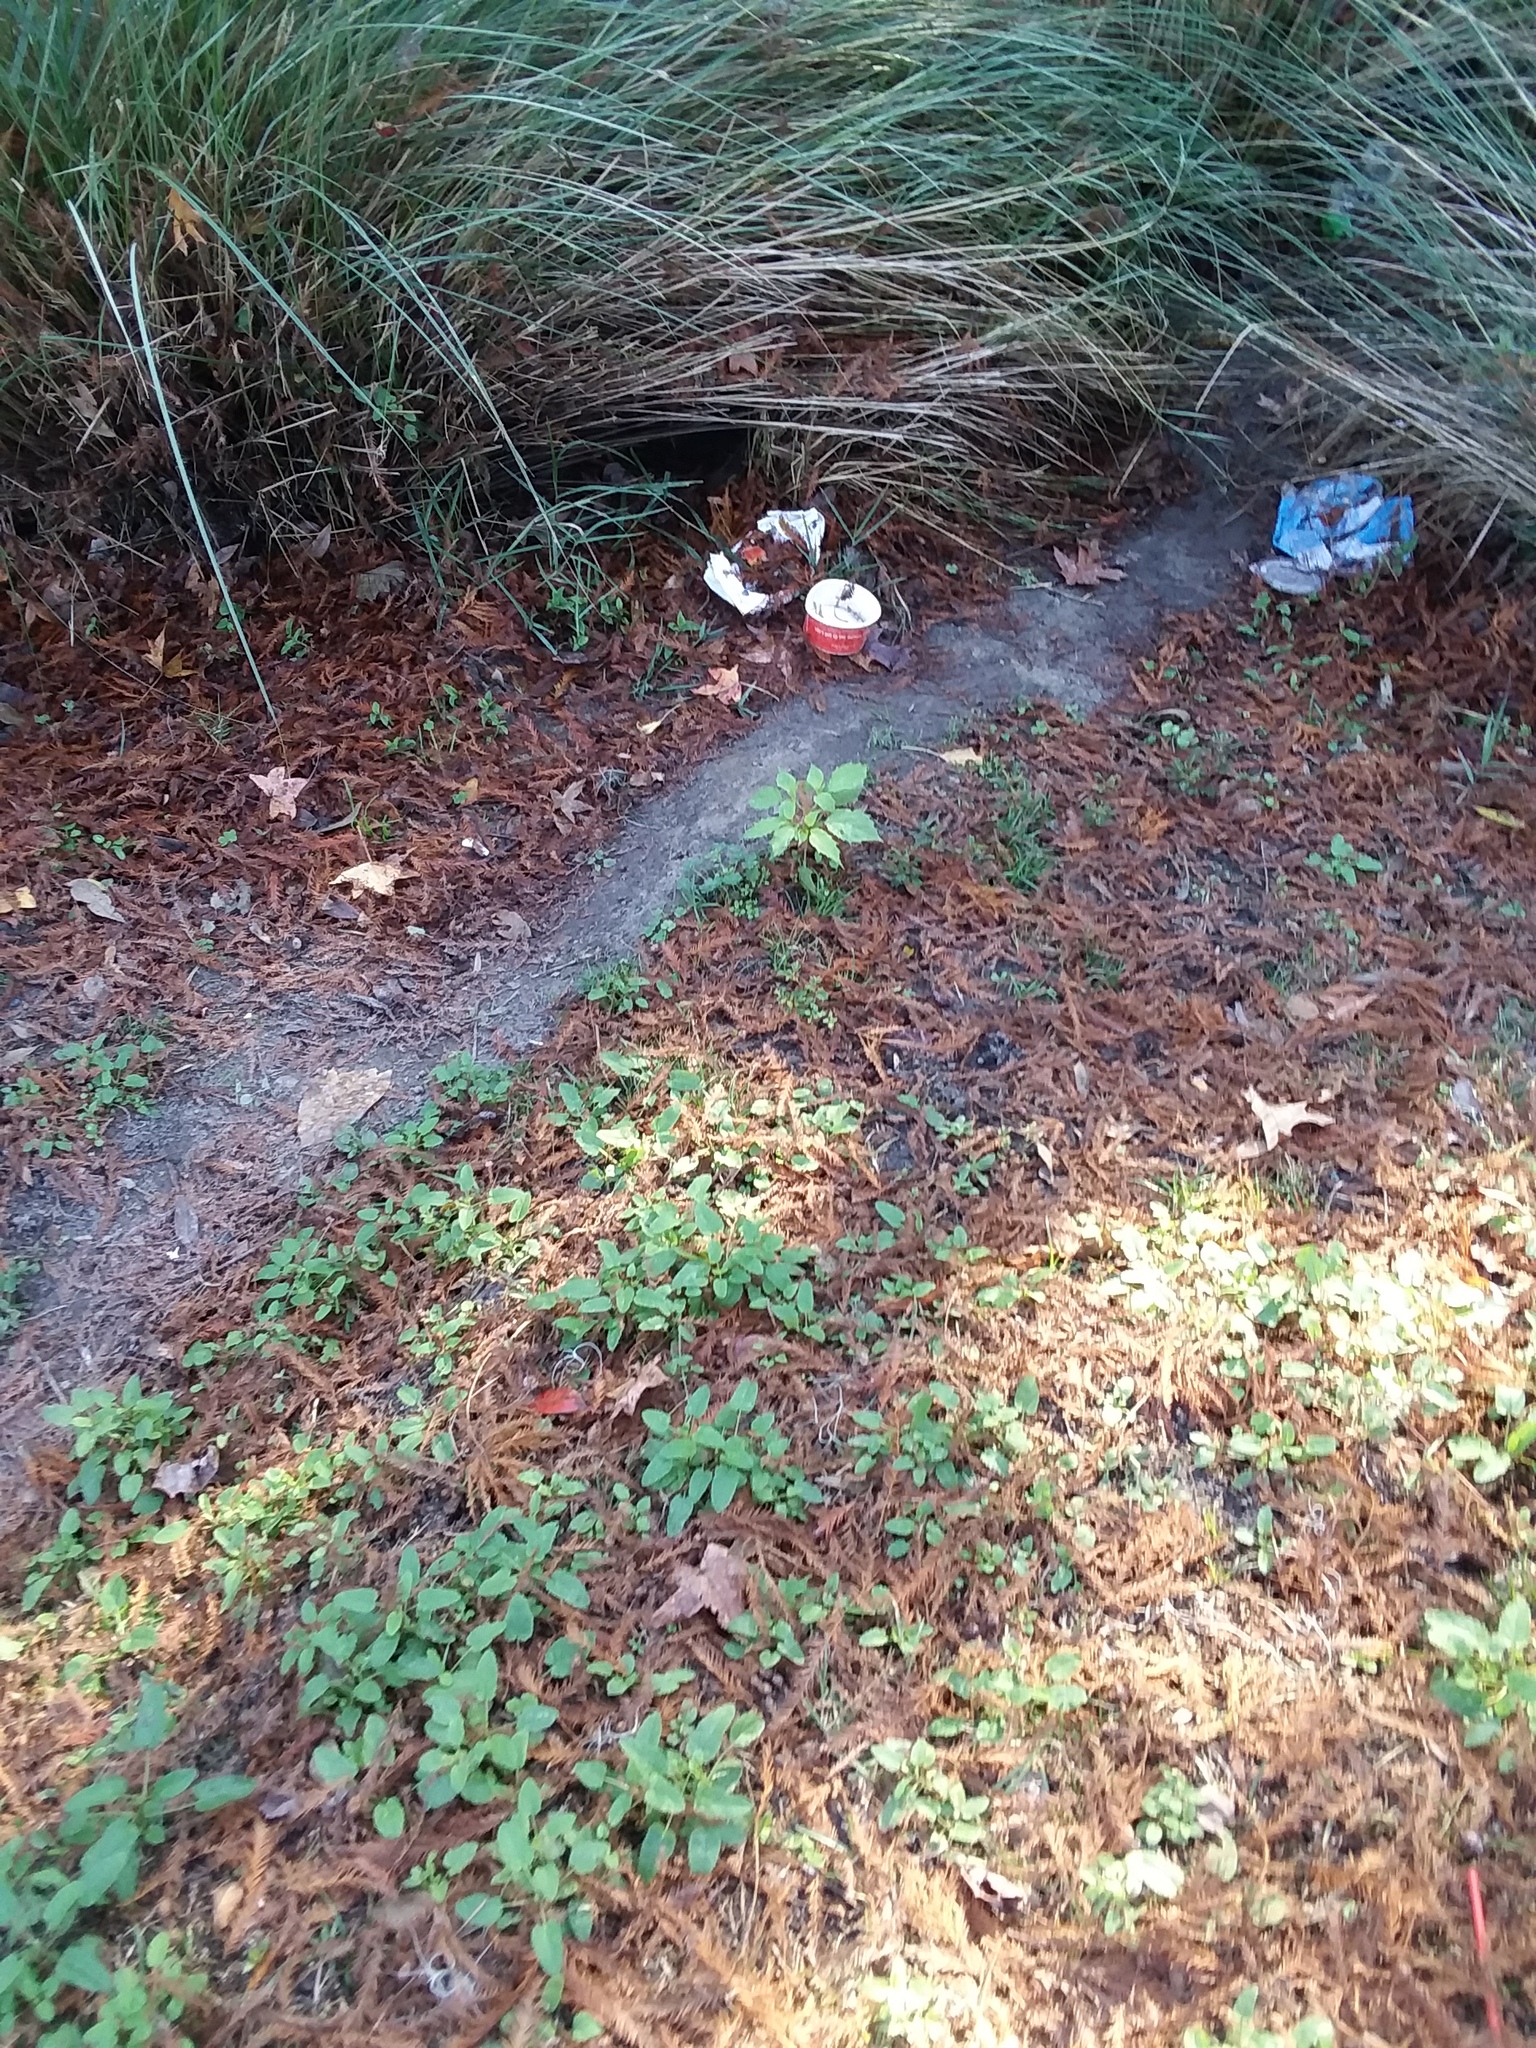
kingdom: Plantae
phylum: Tracheophyta
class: Magnoliopsida
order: Solanales
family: Solanaceae
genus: Physalis
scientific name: Physalis angulata
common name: Angular winter-cherry
